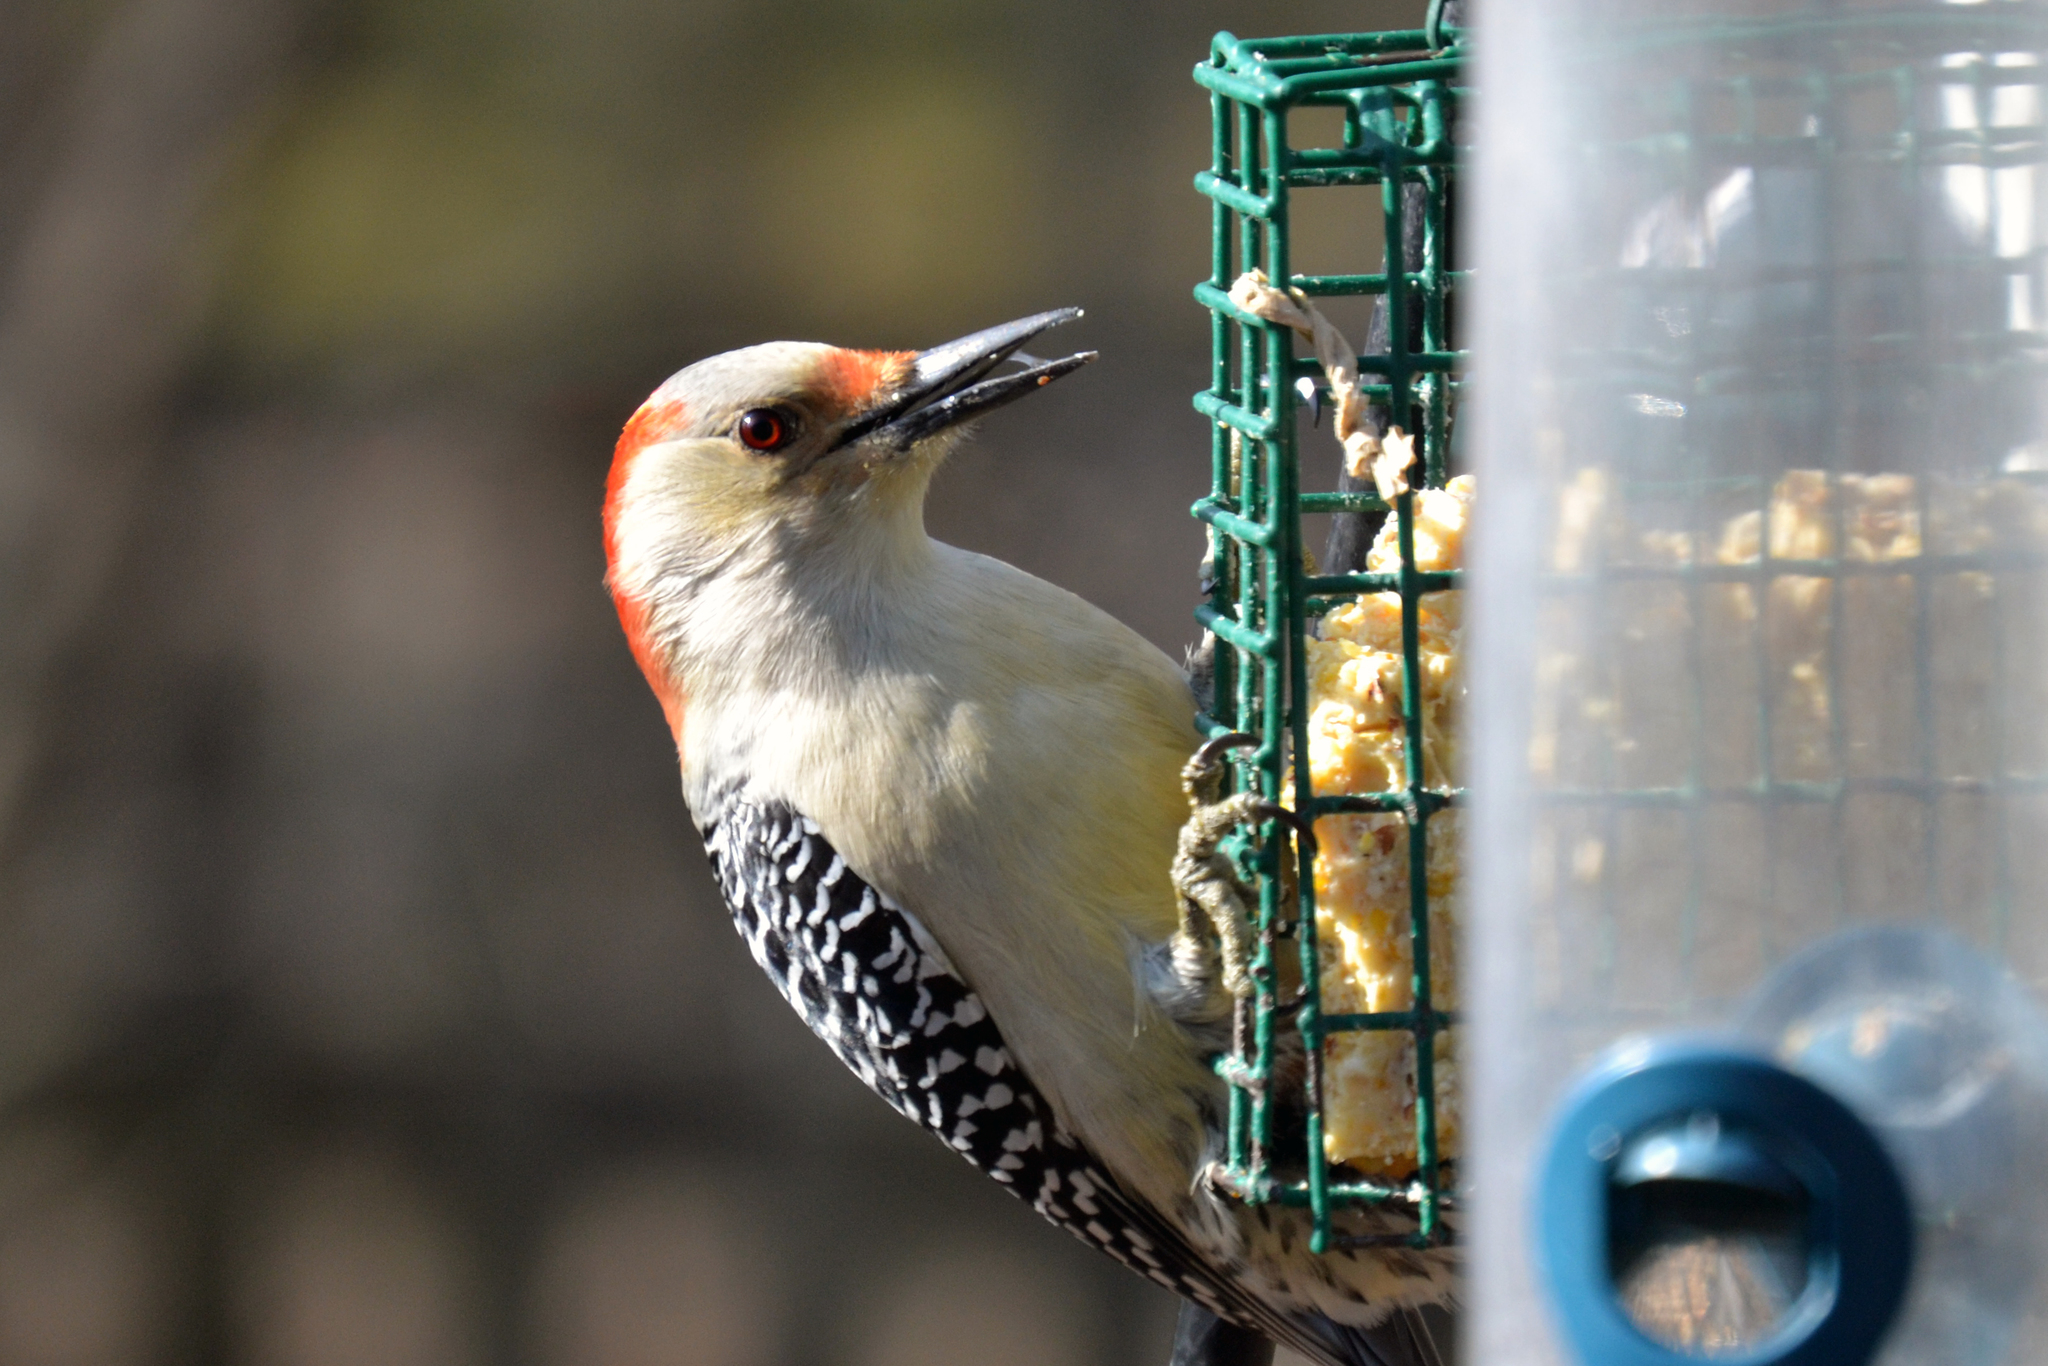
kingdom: Animalia
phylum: Chordata
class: Aves
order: Piciformes
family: Picidae
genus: Melanerpes
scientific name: Melanerpes carolinus
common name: Red-bellied woodpecker
